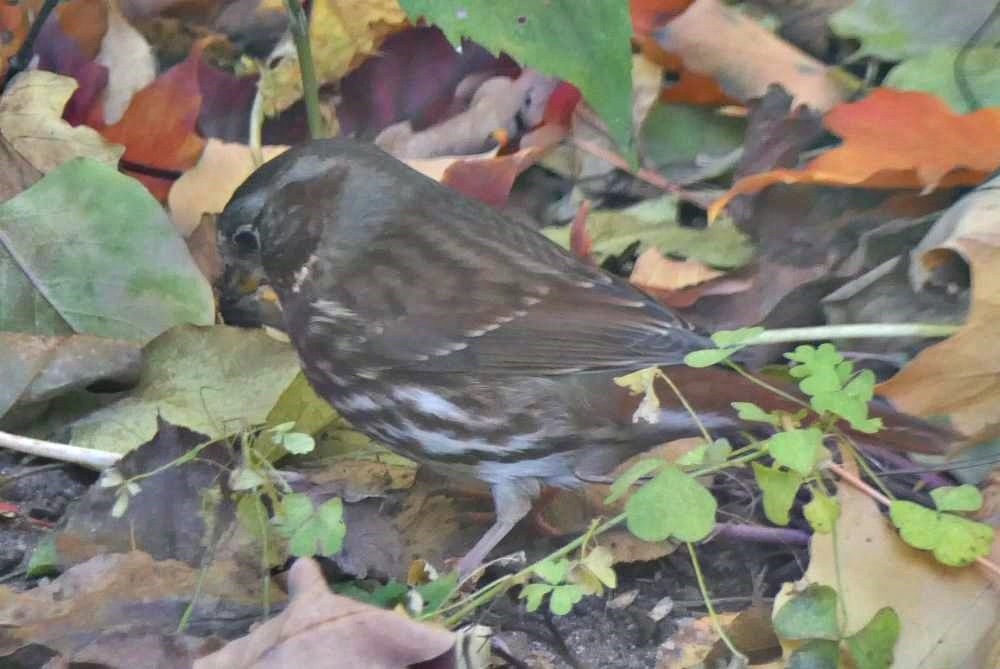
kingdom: Animalia
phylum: Chordata
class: Aves
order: Passeriformes
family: Passerellidae
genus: Passerella
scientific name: Passerella iliaca
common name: Fox sparrow
